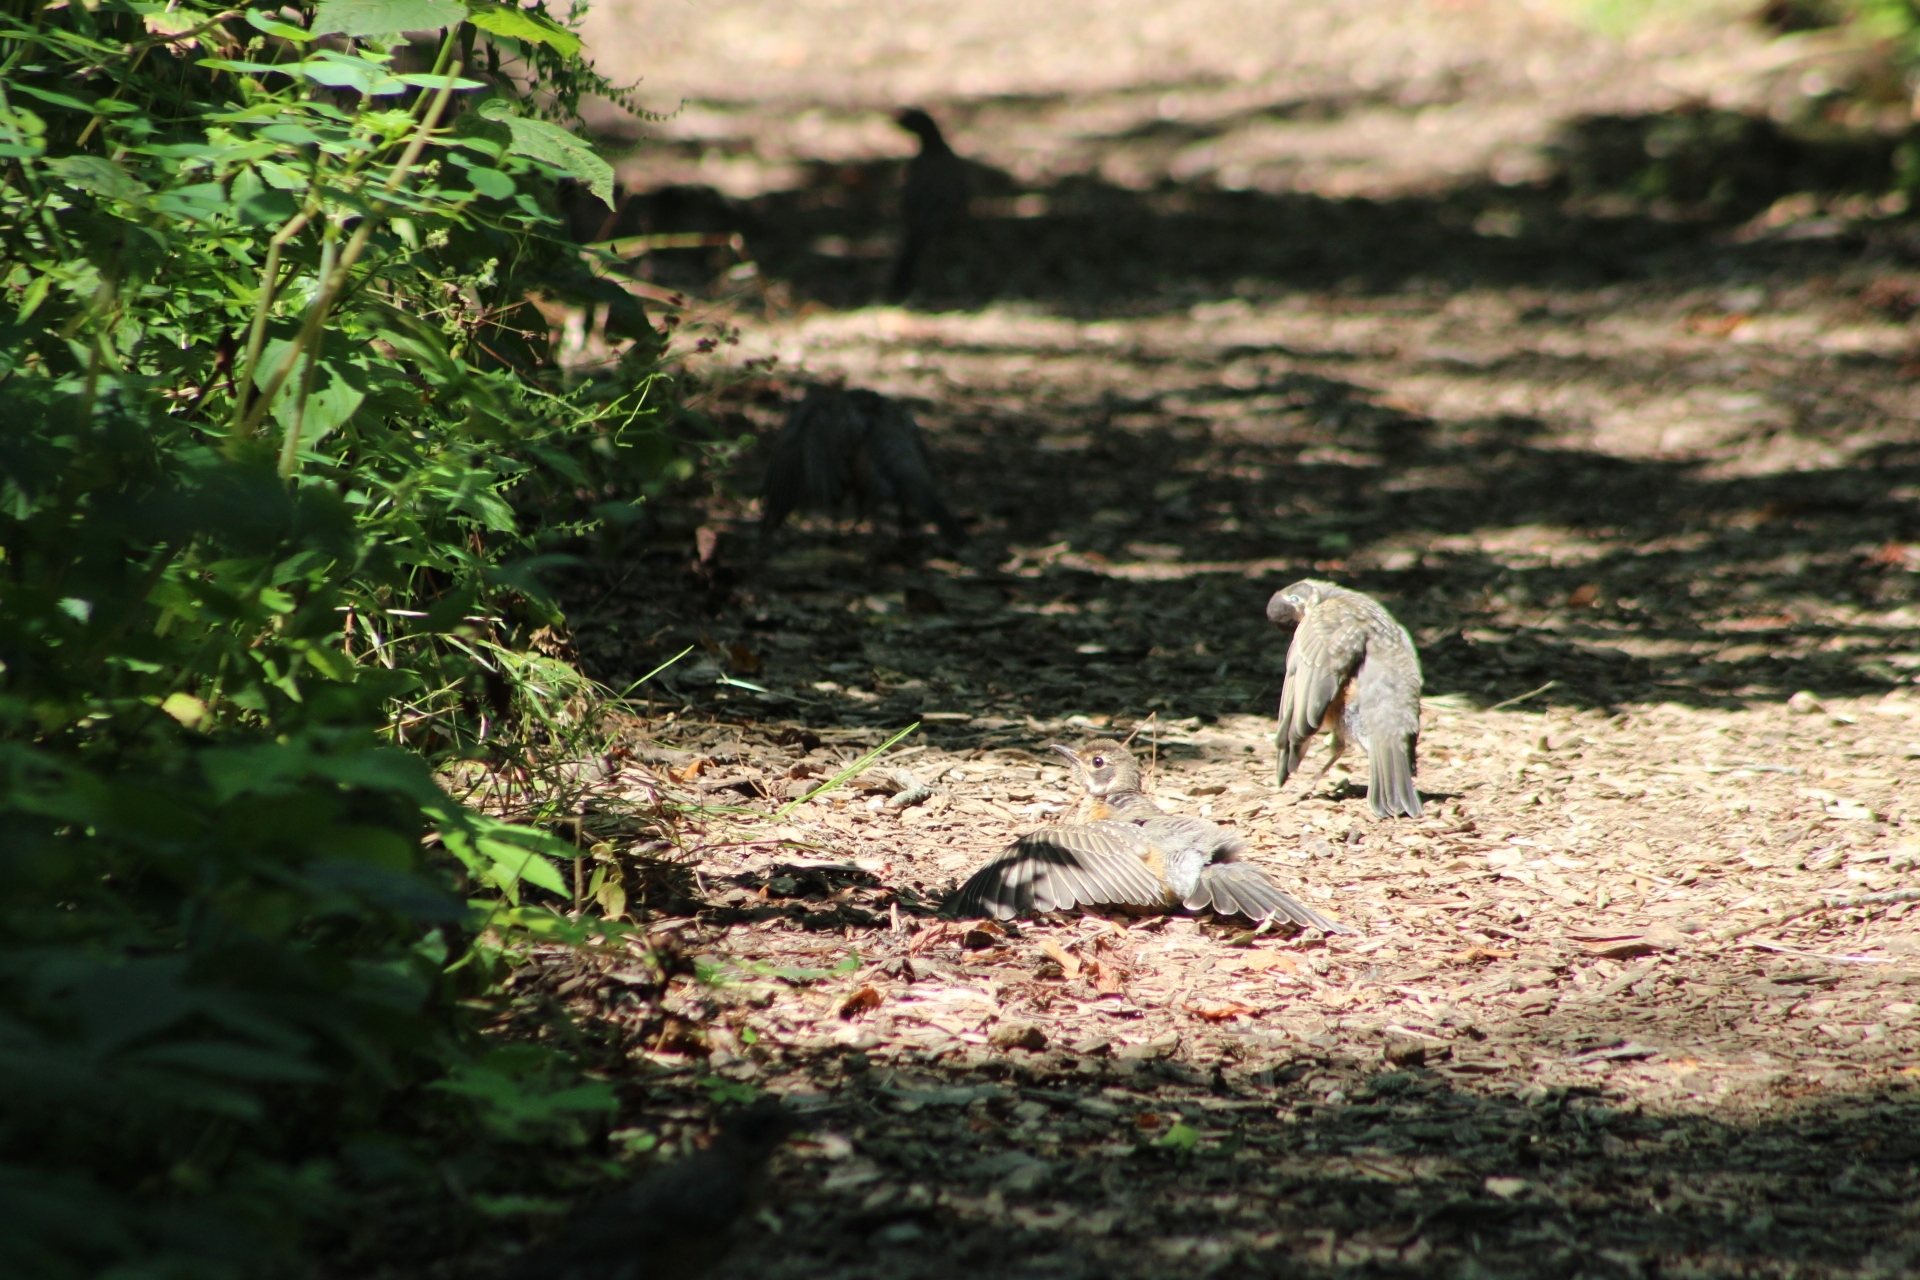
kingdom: Animalia
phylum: Chordata
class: Aves
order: Passeriformes
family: Turdidae
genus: Turdus
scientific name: Turdus migratorius
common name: American robin
